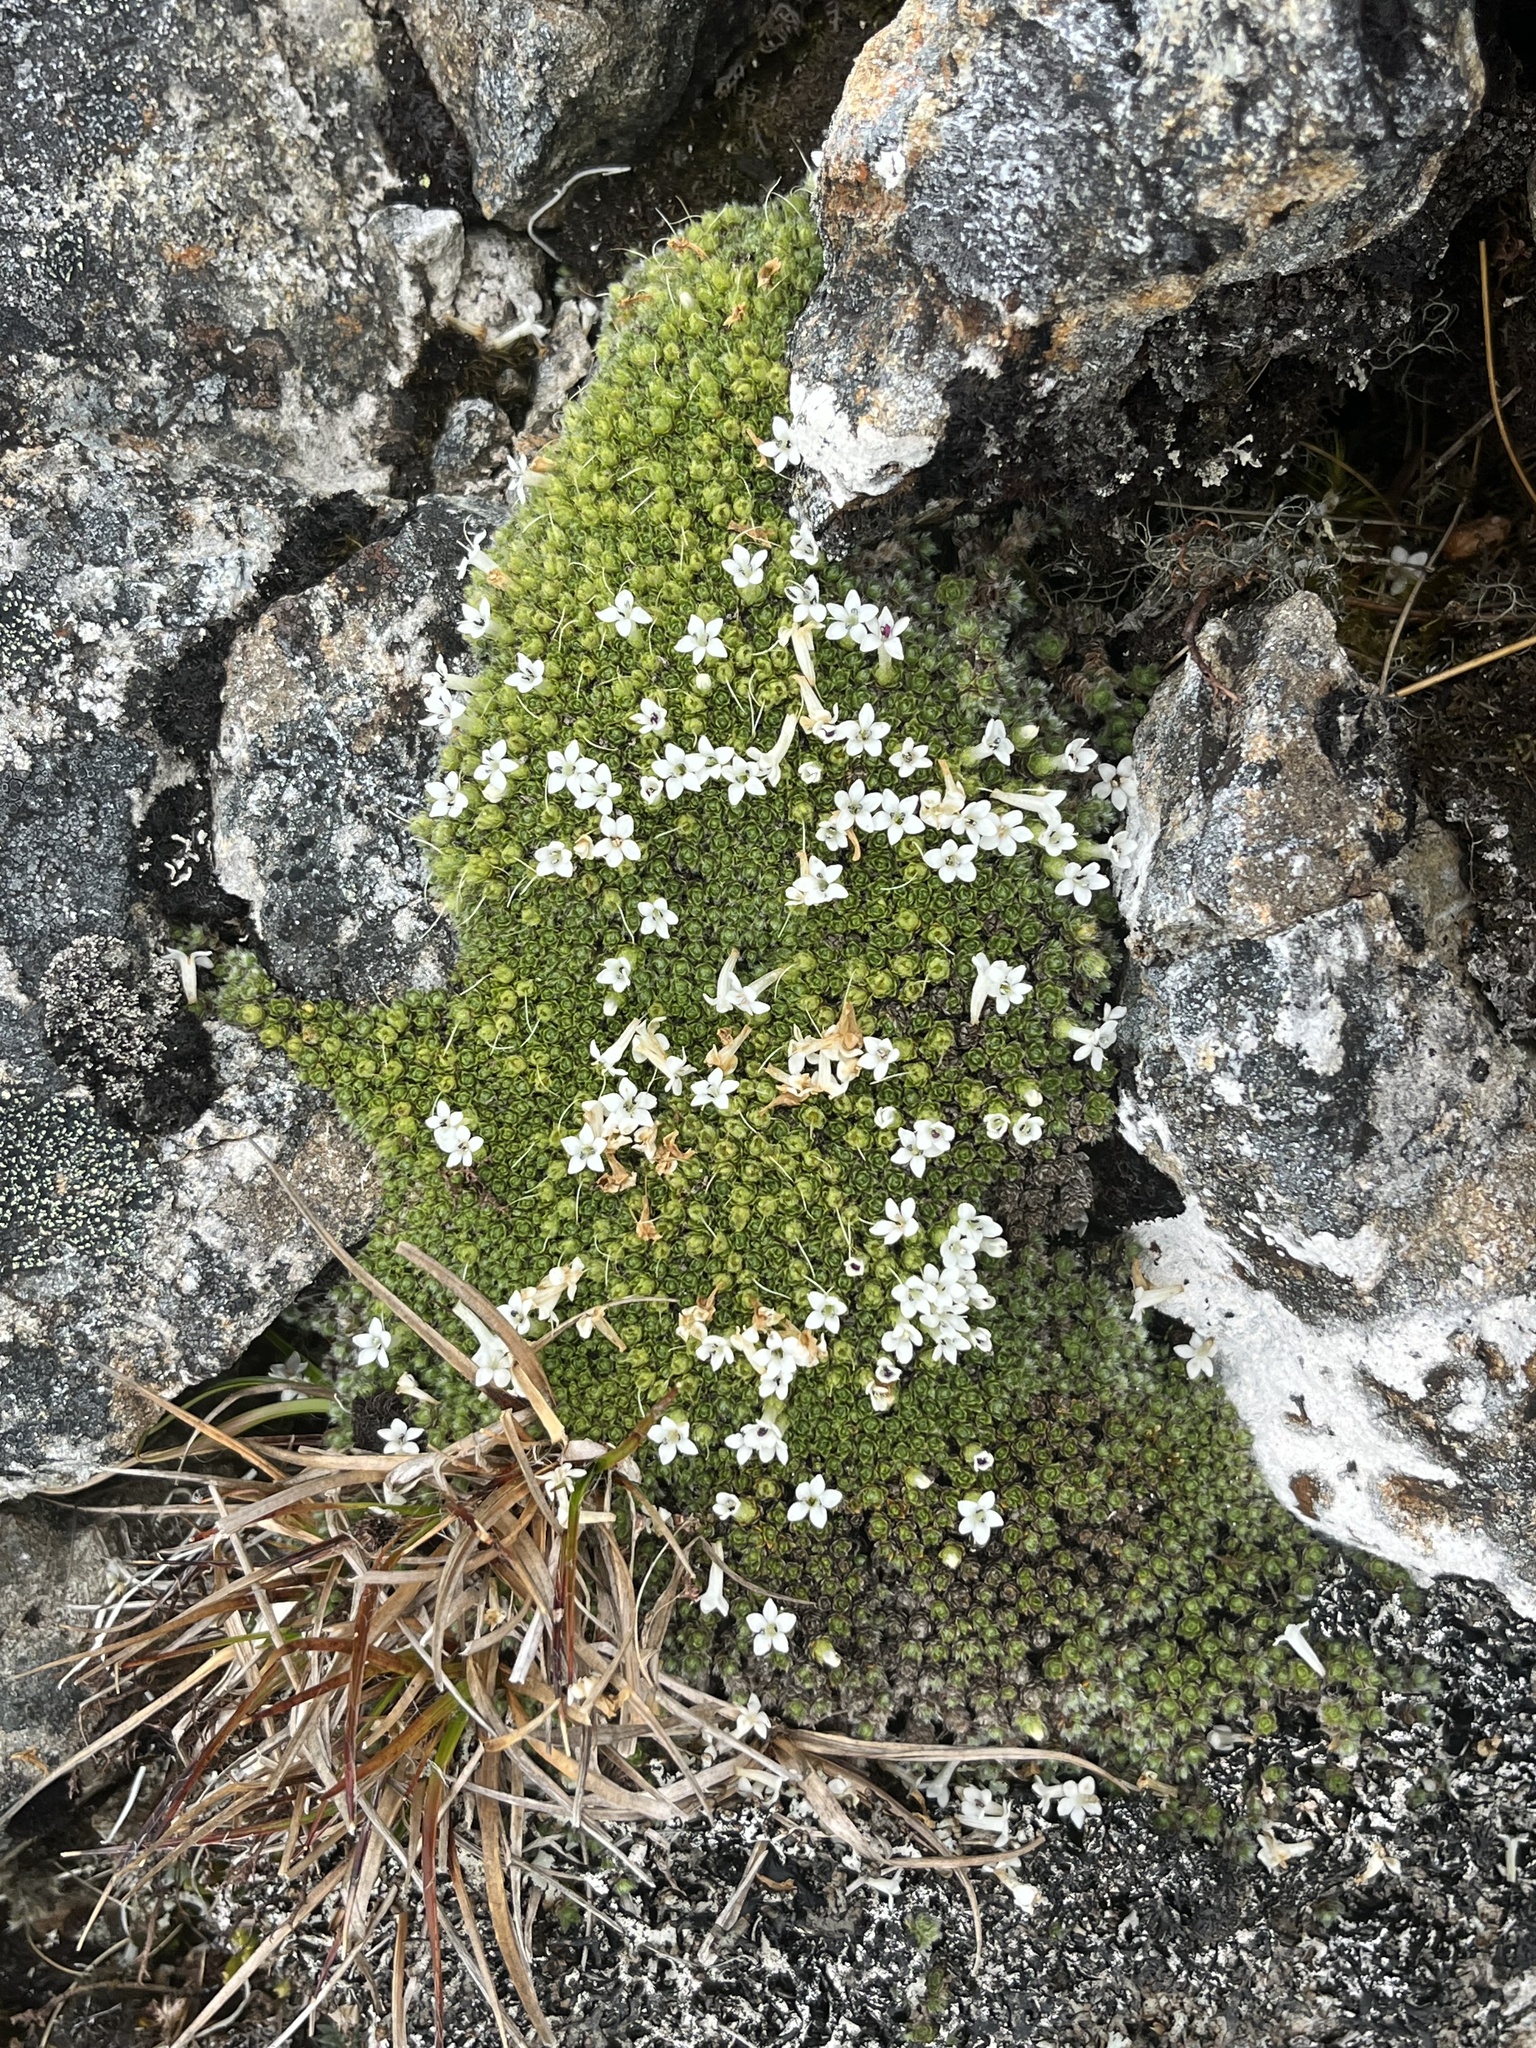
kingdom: Plantae
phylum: Tracheophyta
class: Magnoliopsida
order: Lamiales
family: Plantaginaceae
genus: Veronica
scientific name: Veronica pulvinaris
